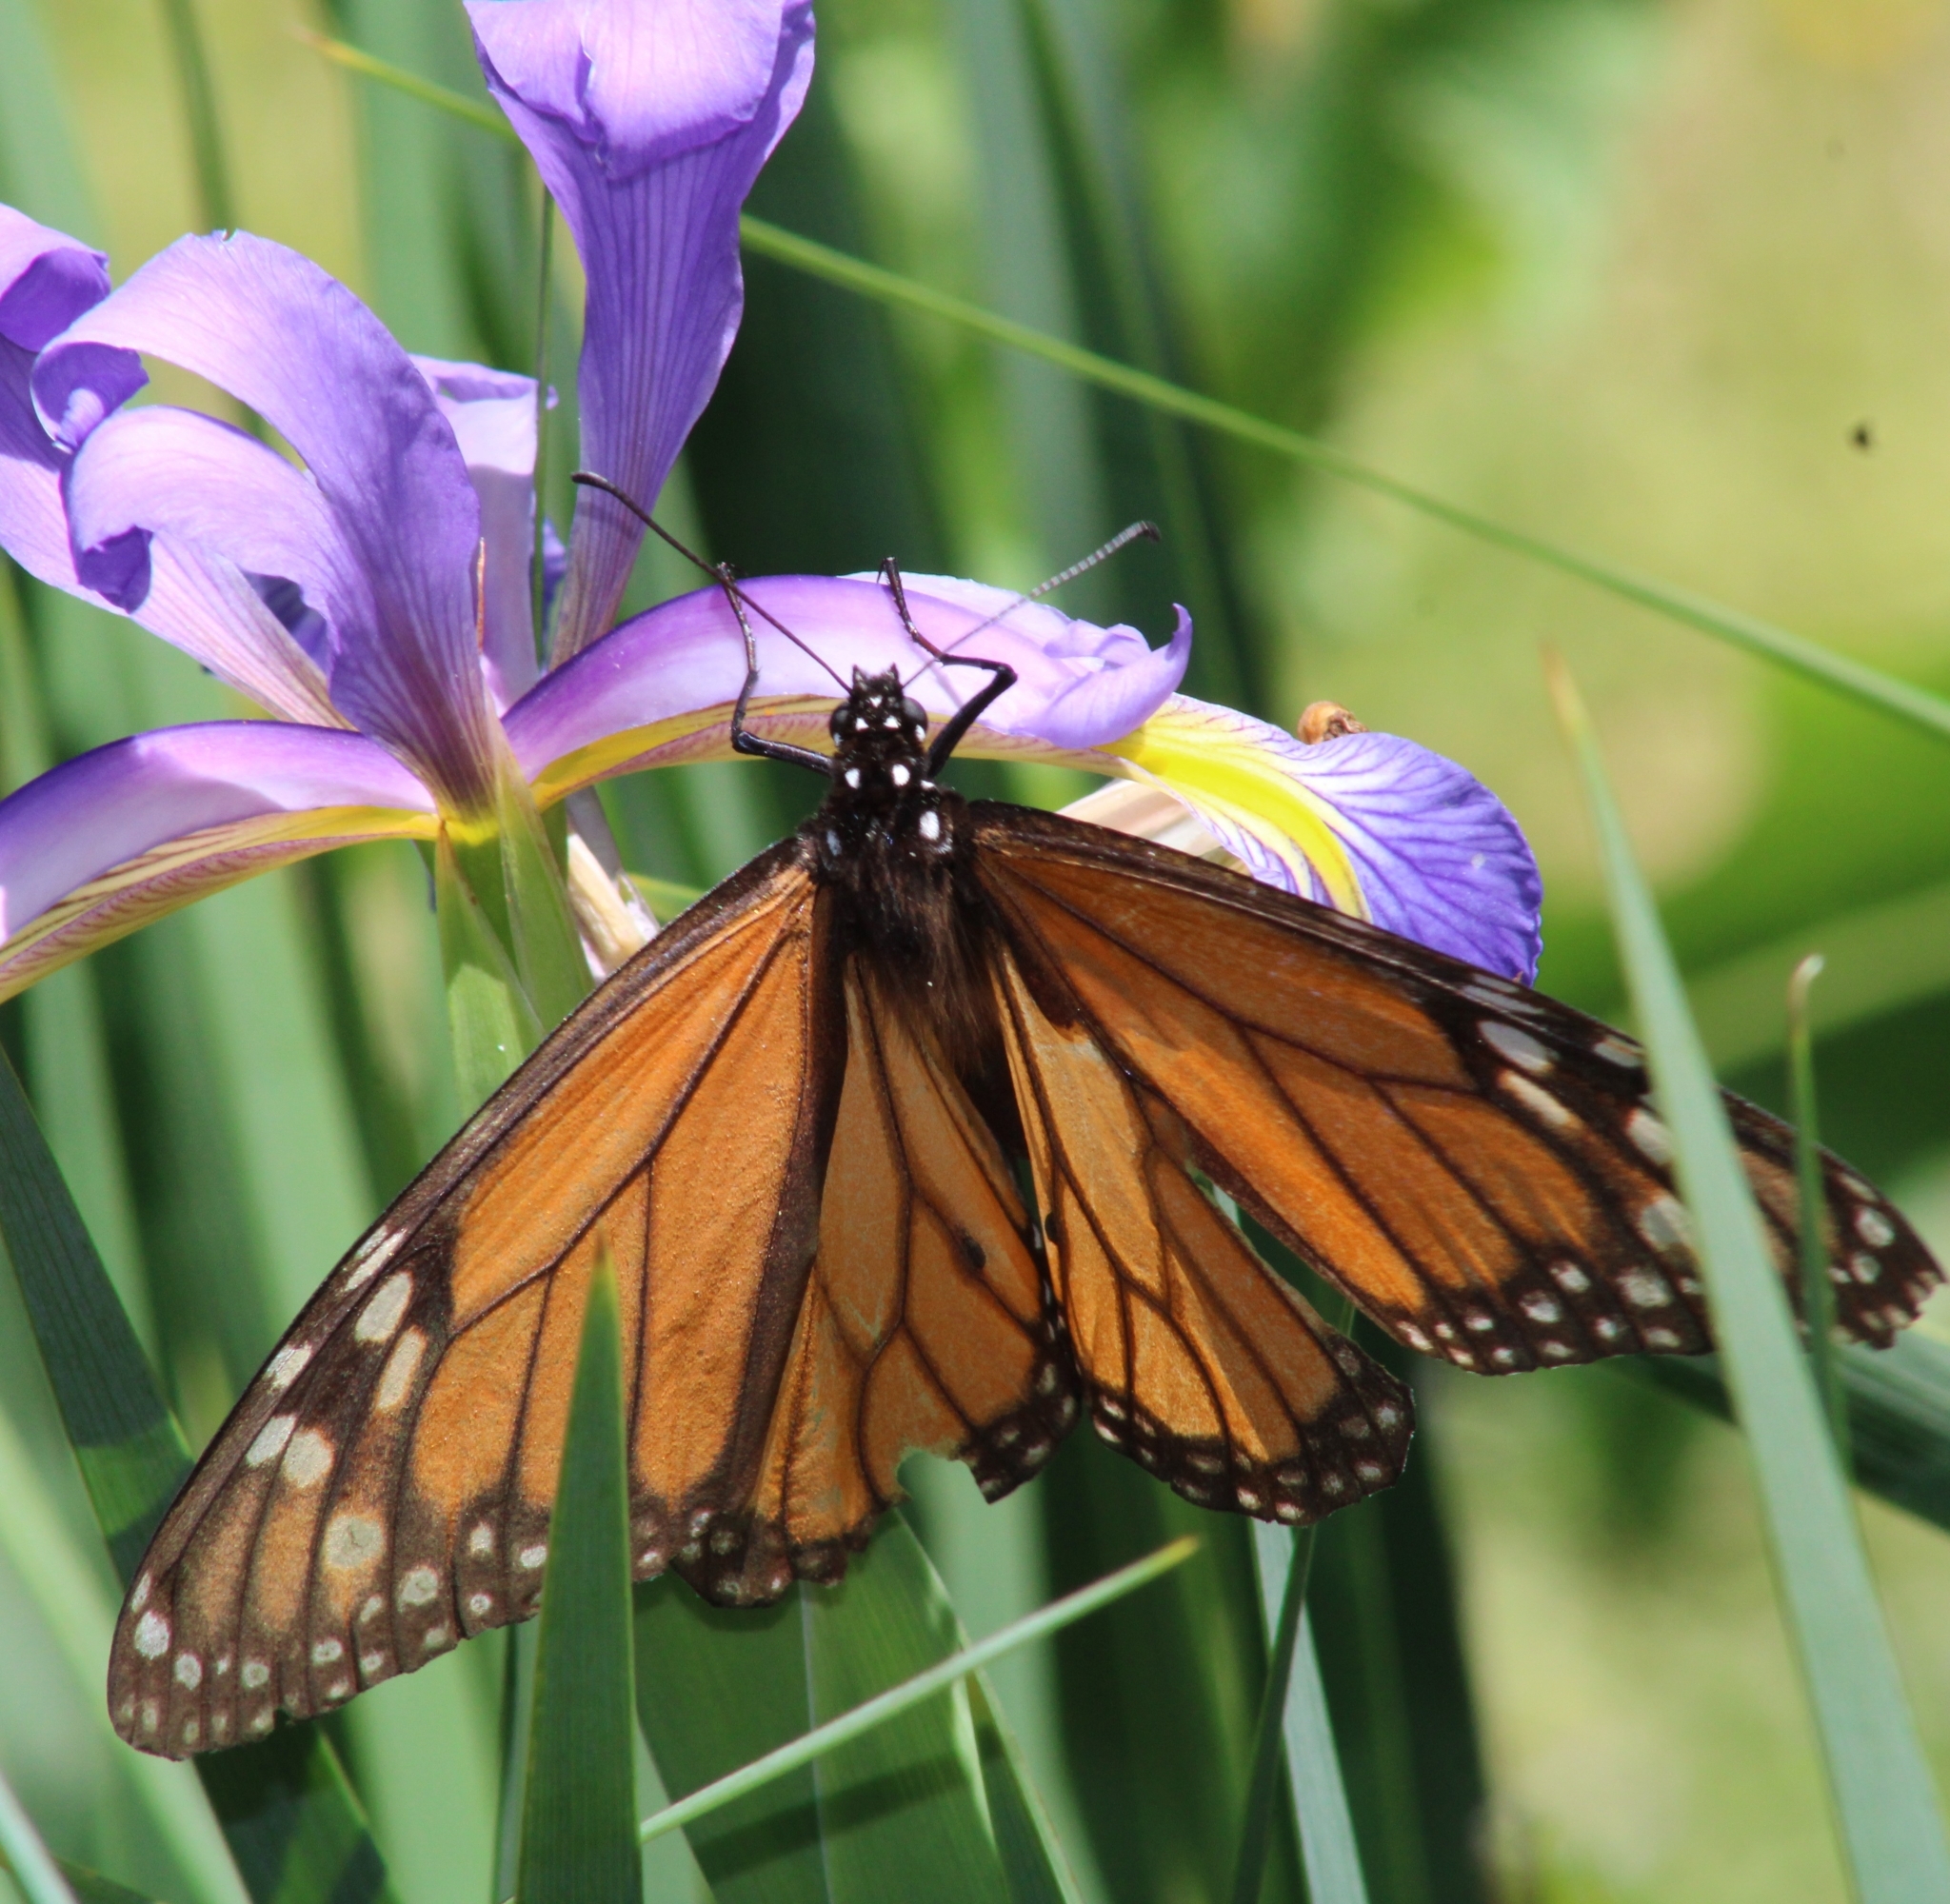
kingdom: Animalia
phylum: Arthropoda
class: Insecta
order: Lepidoptera
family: Nymphalidae
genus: Danaus
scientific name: Danaus plexippus
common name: Monarch
